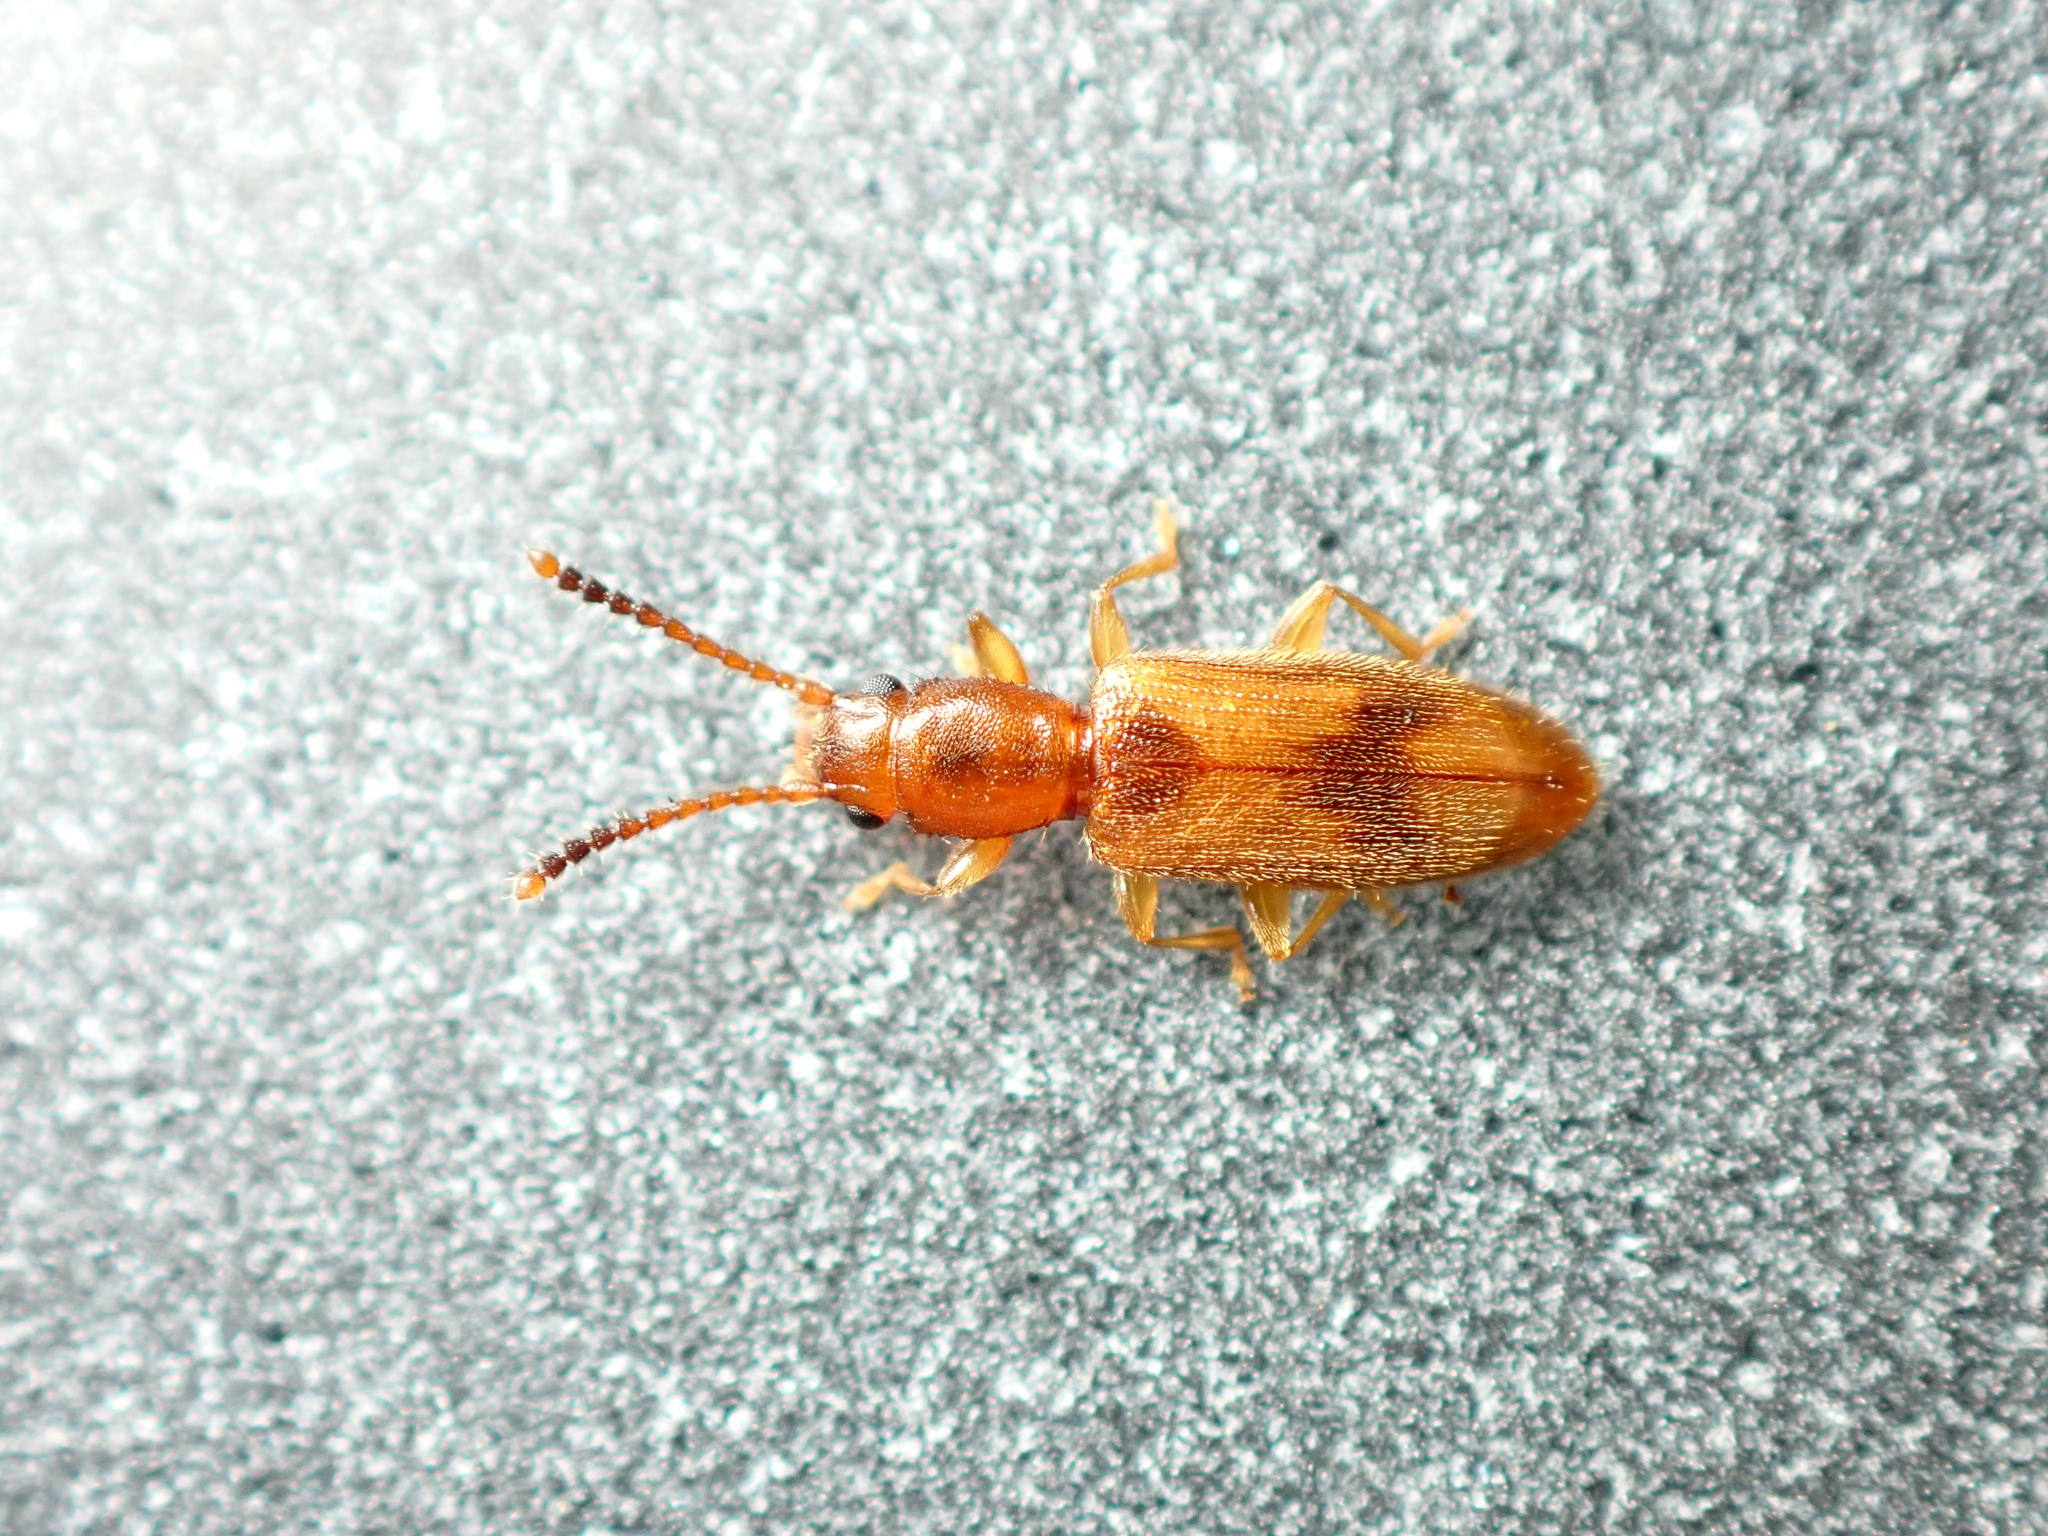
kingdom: Animalia
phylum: Arthropoda
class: Insecta
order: Coleoptera
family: Silvanidae
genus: Cryptamorpha
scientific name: Cryptamorpha desjardinsi
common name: Cryptamorpha
